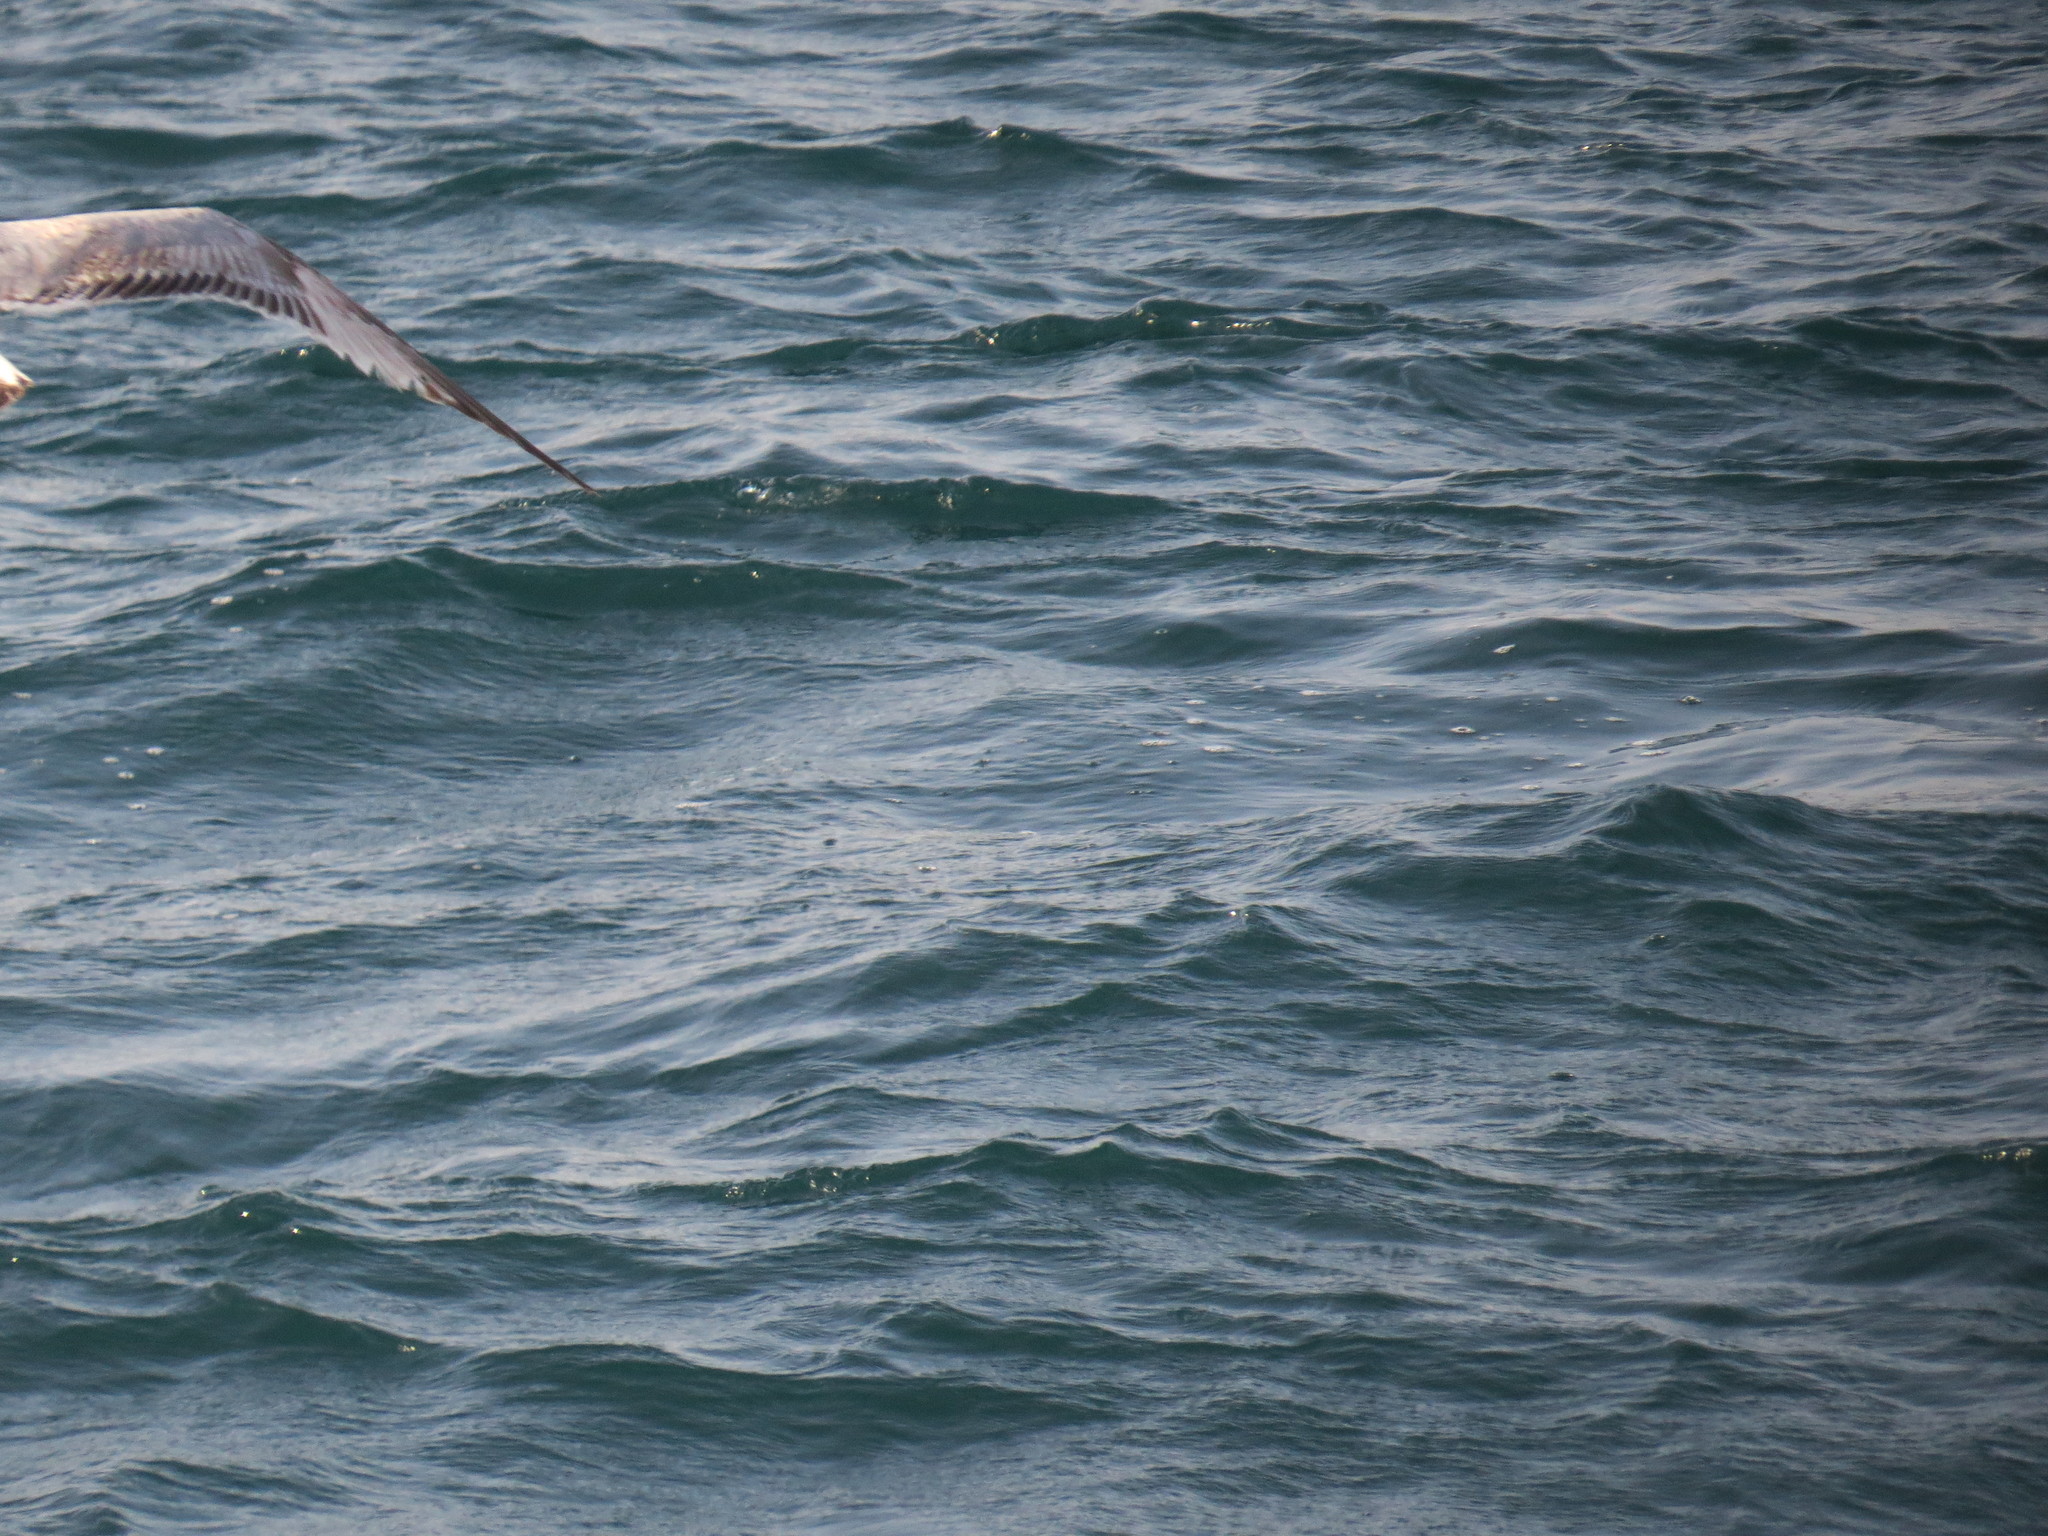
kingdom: Animalia
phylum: Chordata
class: Aves
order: Charadriiformes
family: Laridae
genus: Larus
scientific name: Larus michahellis
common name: Yellow-legged gull
